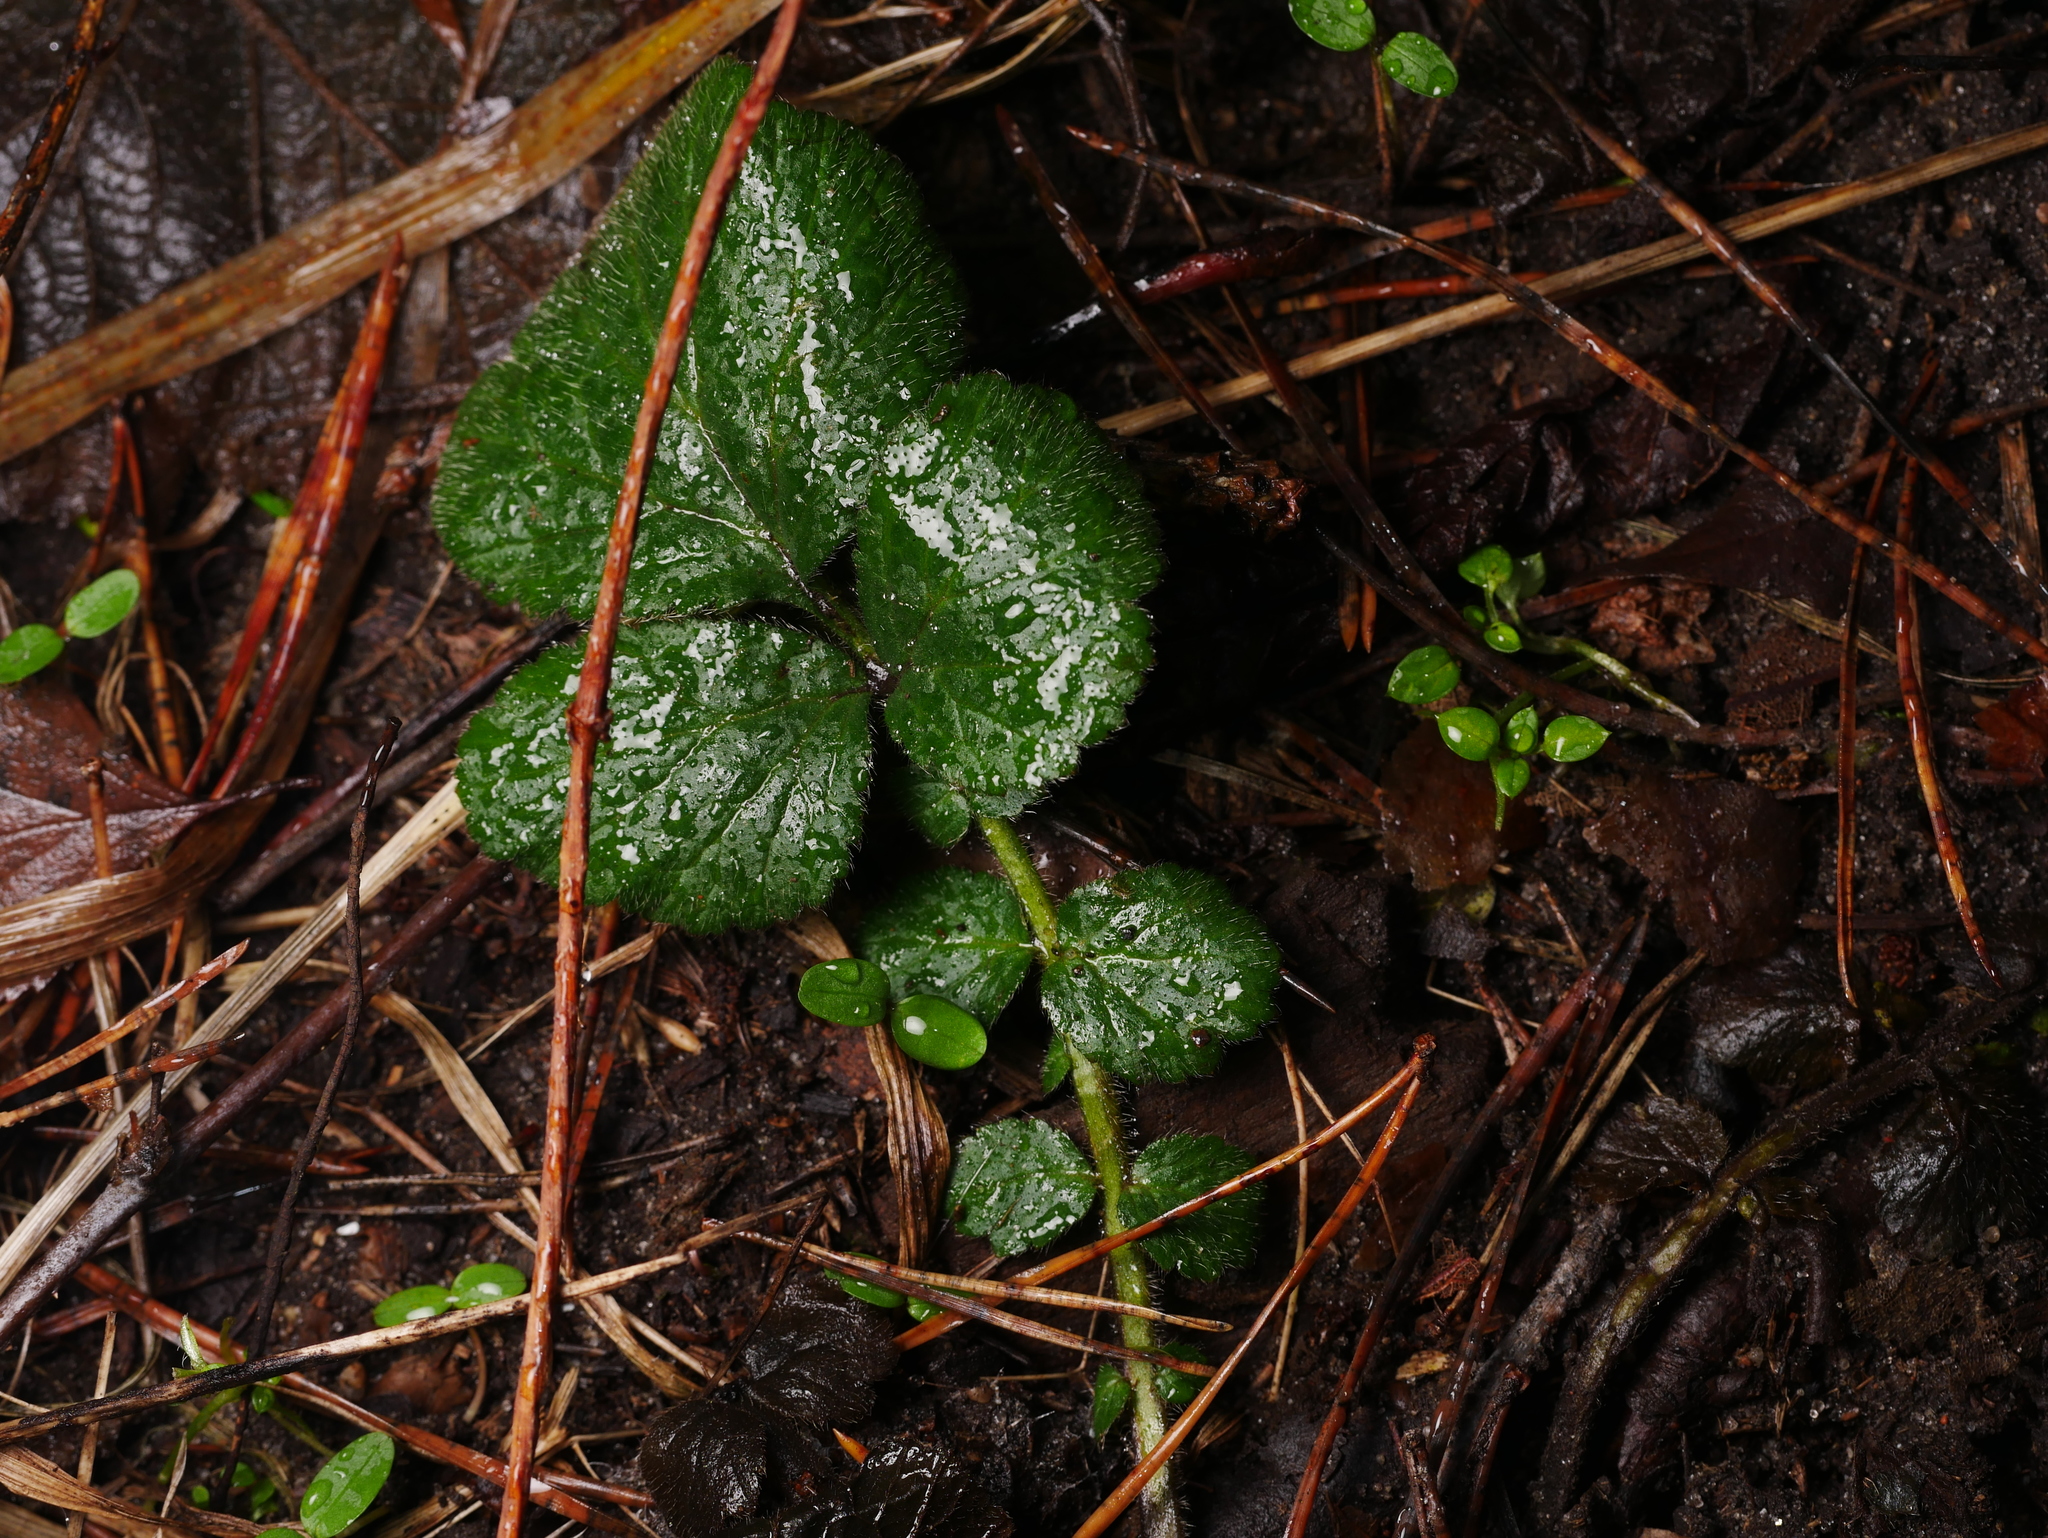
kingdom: Plantae
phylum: Tracheophyta
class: Magnoliopsida
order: Rosales
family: Rosaceae
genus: Geum
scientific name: Geum urbanum
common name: Wood avens
